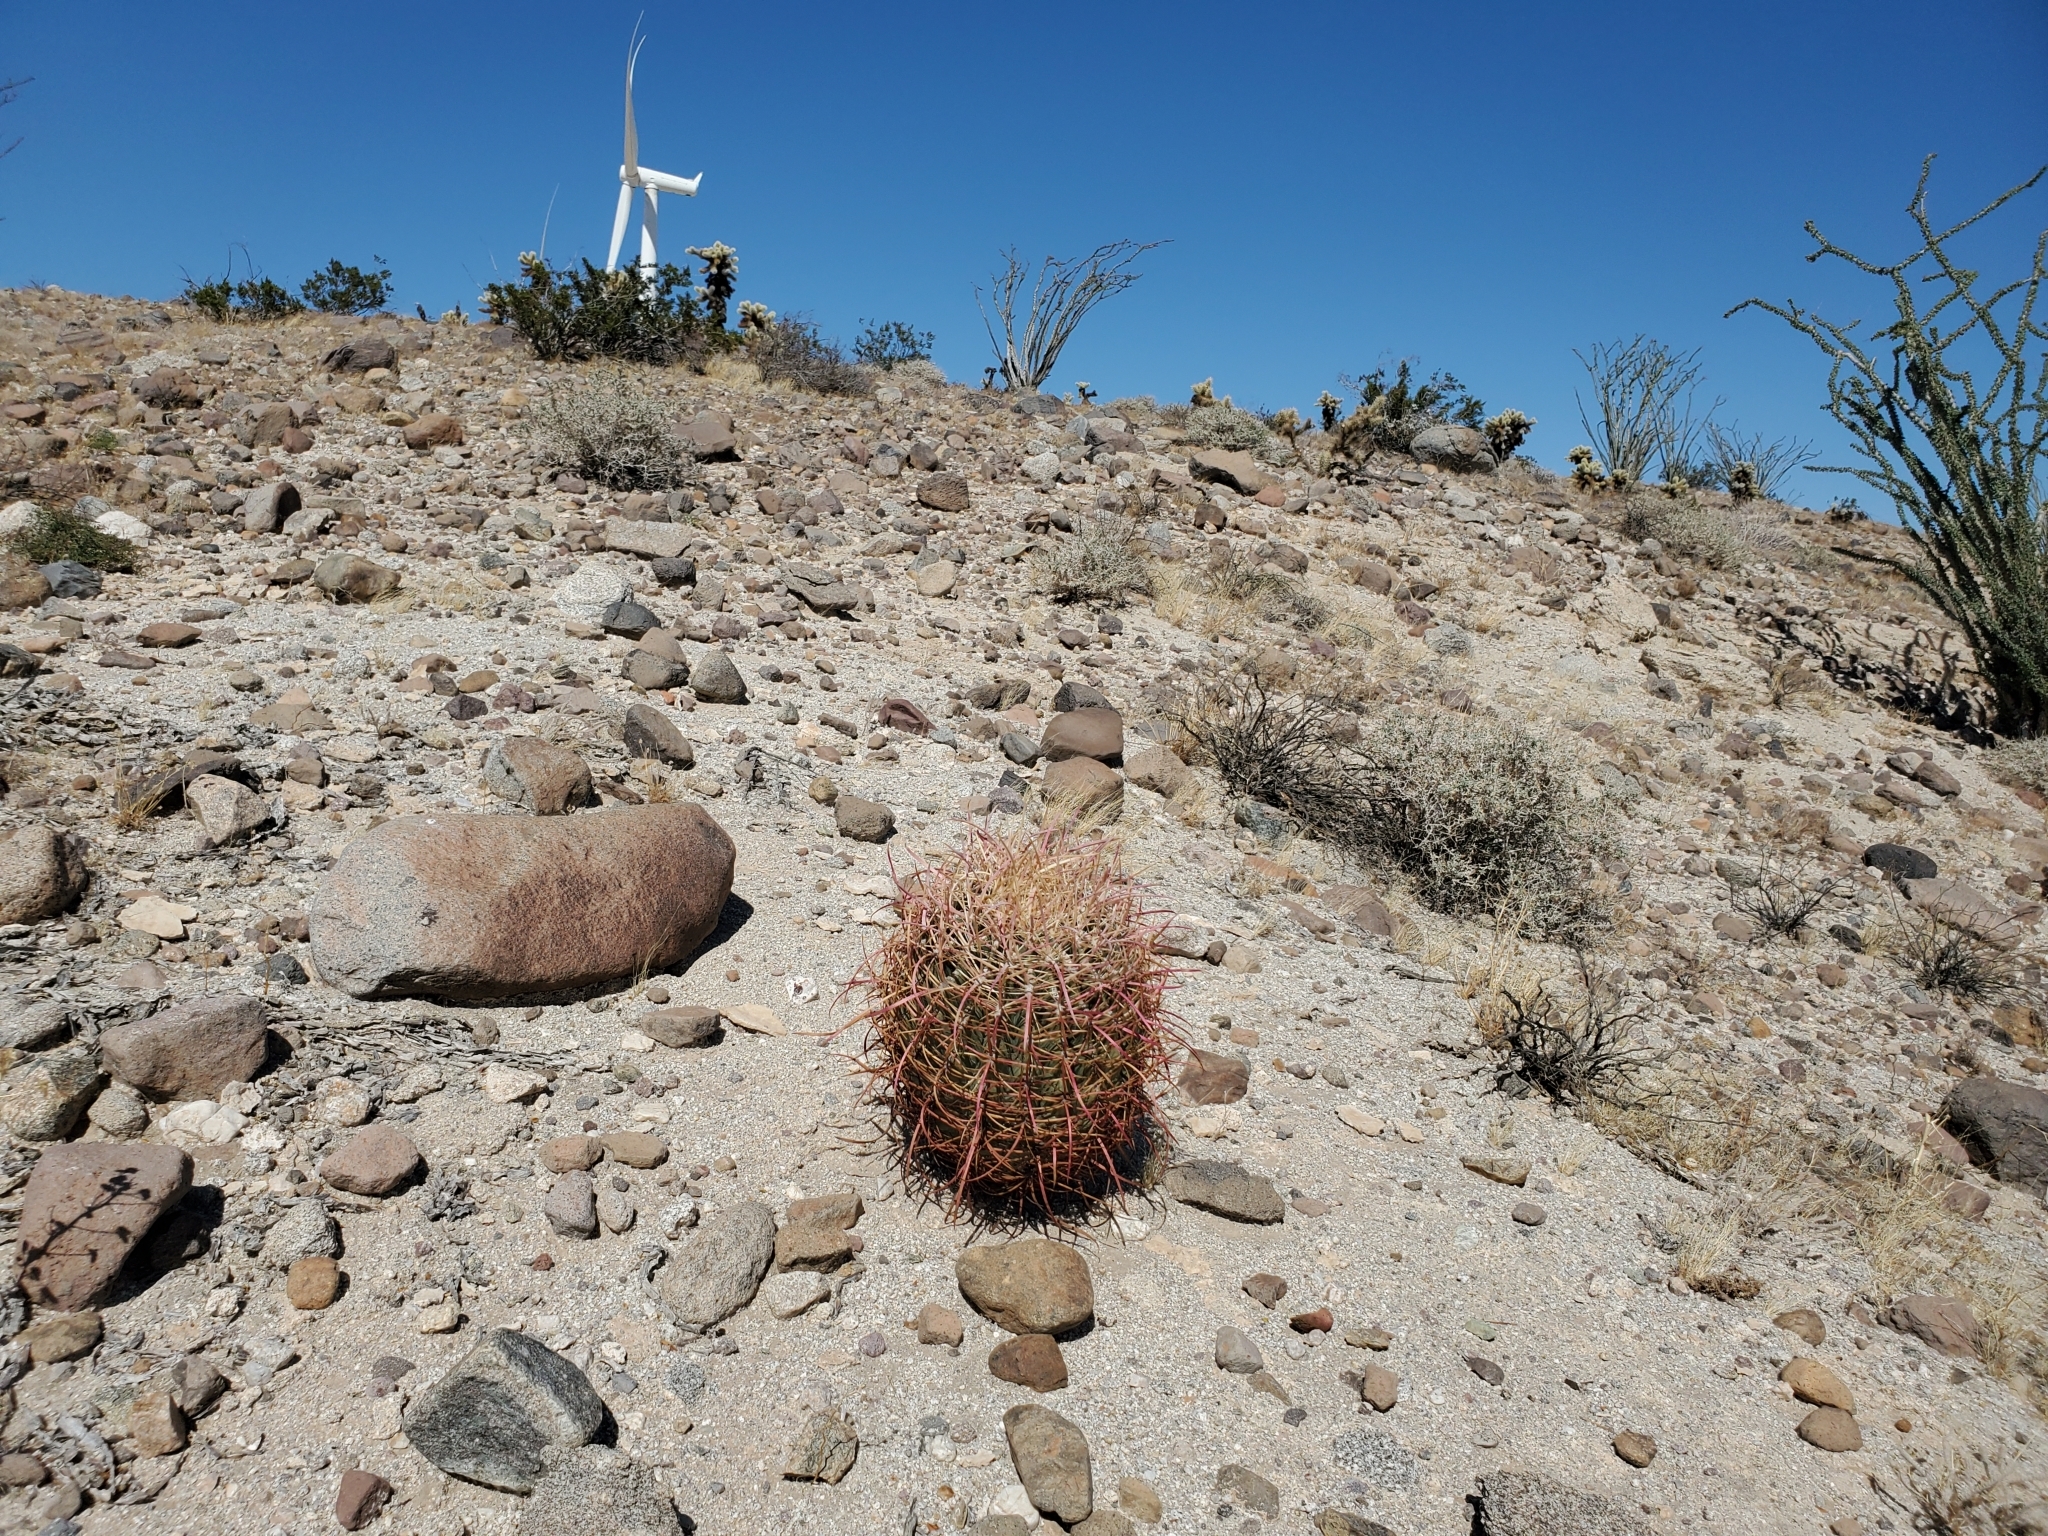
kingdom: Plantae
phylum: Tracheophyta
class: Magnoliopsida
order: Caryophyllales
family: Cactaceae
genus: Ferocactus
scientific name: Ferocactus cylindraceus
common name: California barrel cactus
